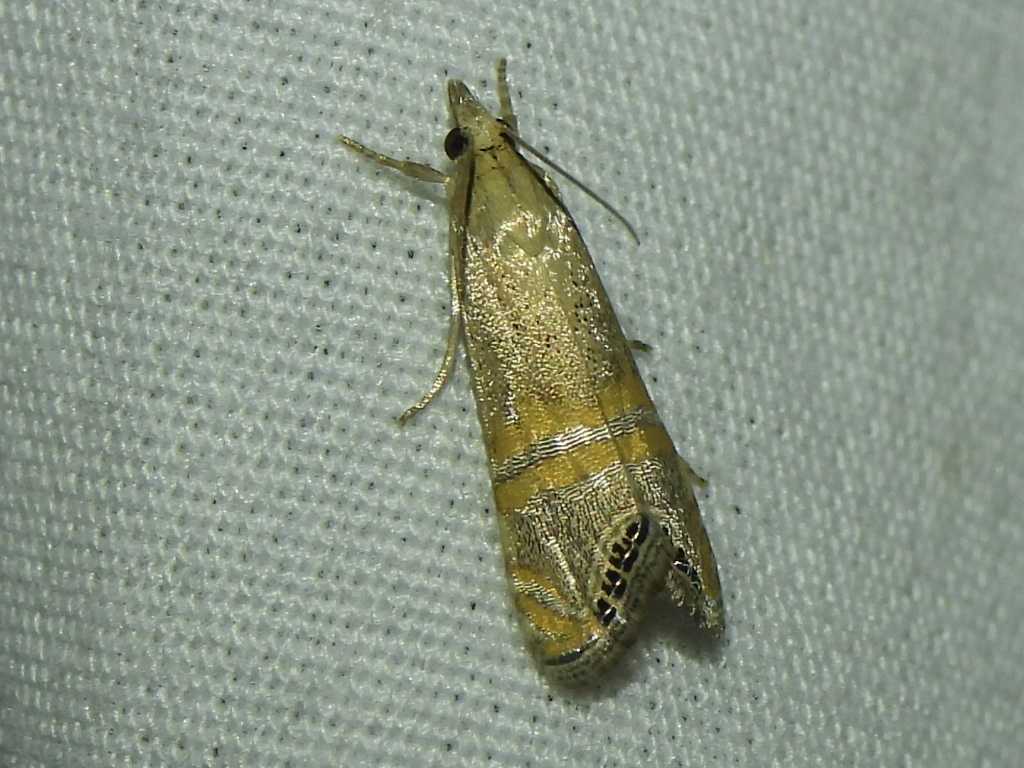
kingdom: Animalia
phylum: Arthropoda
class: Insecta
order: Lepidoptera
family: Crambidae
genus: Euchromius
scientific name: Euchromius ocellea
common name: Necklace veneer moth
